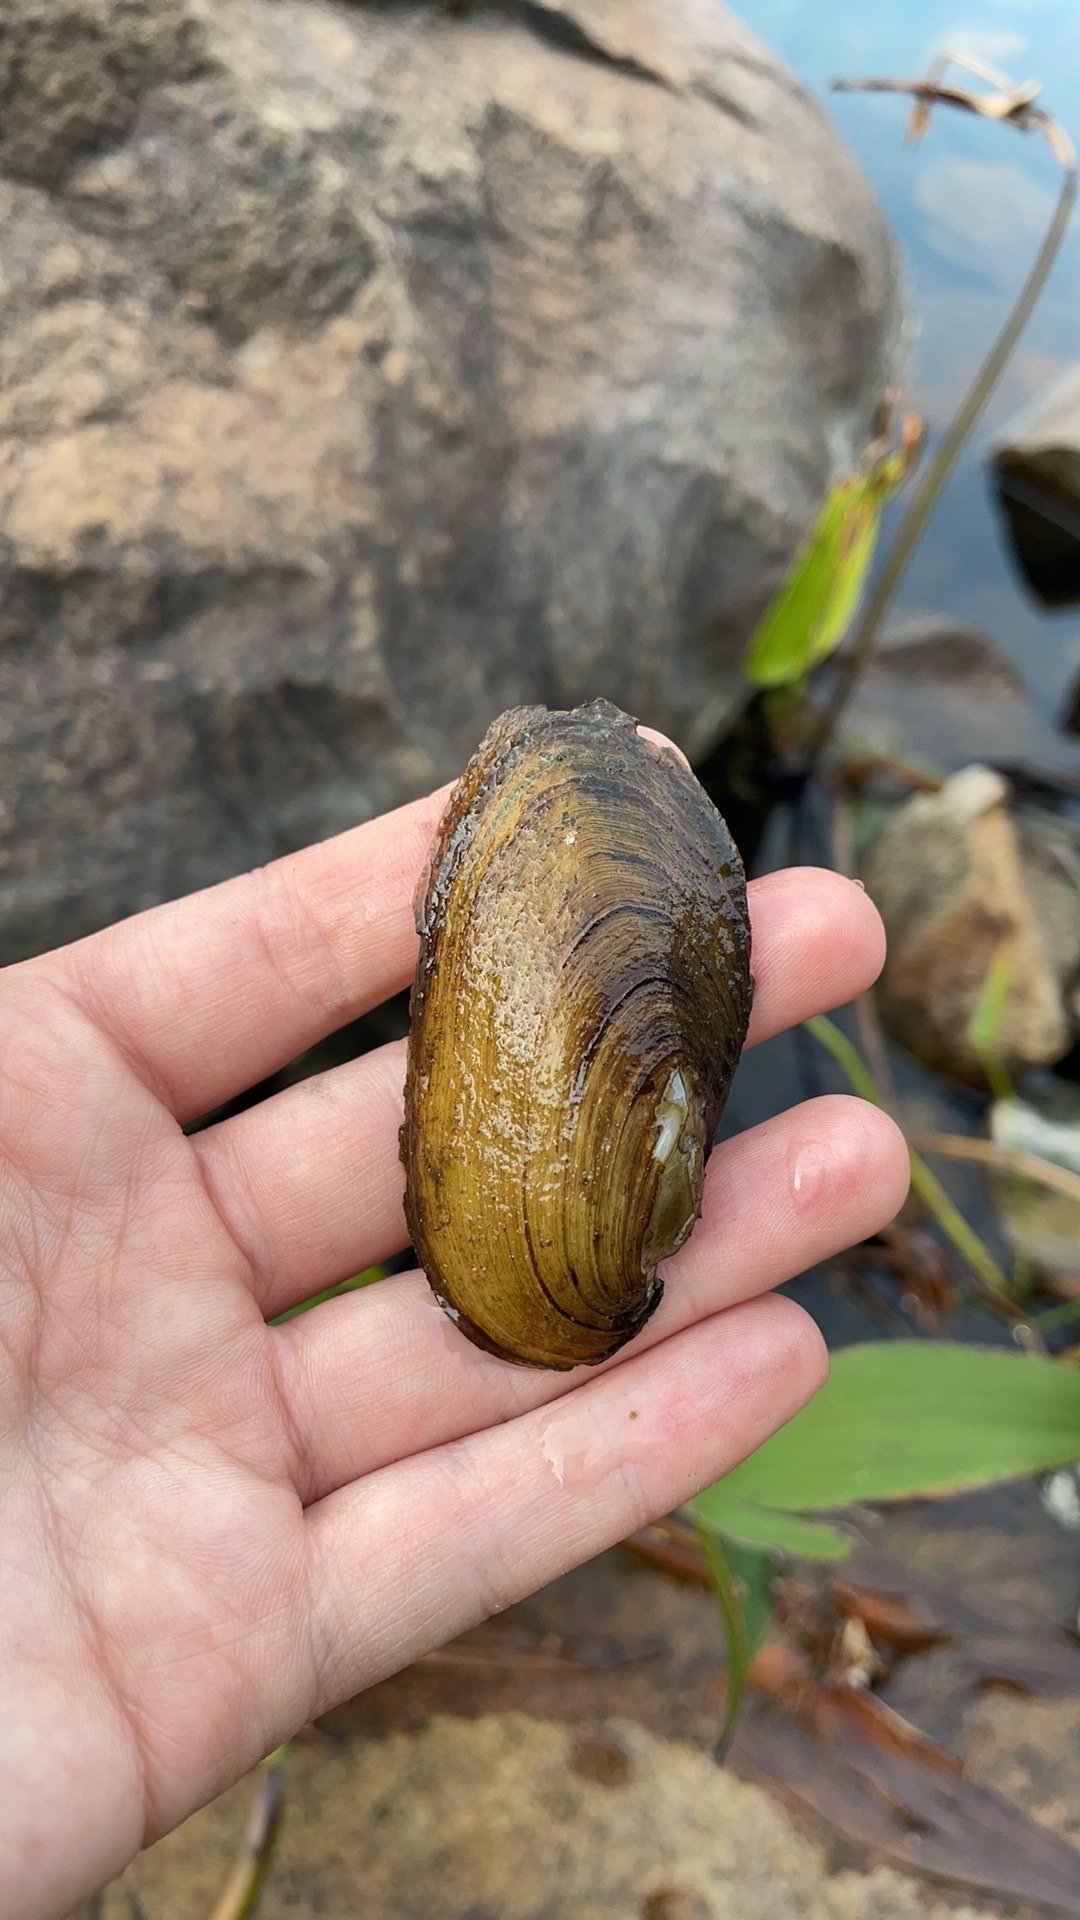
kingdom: Animalia
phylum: Mollusca
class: Bivalvia
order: Unionida
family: Unionidae
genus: Elliptio
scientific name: Elliptio complanata
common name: Eastern elliptio
